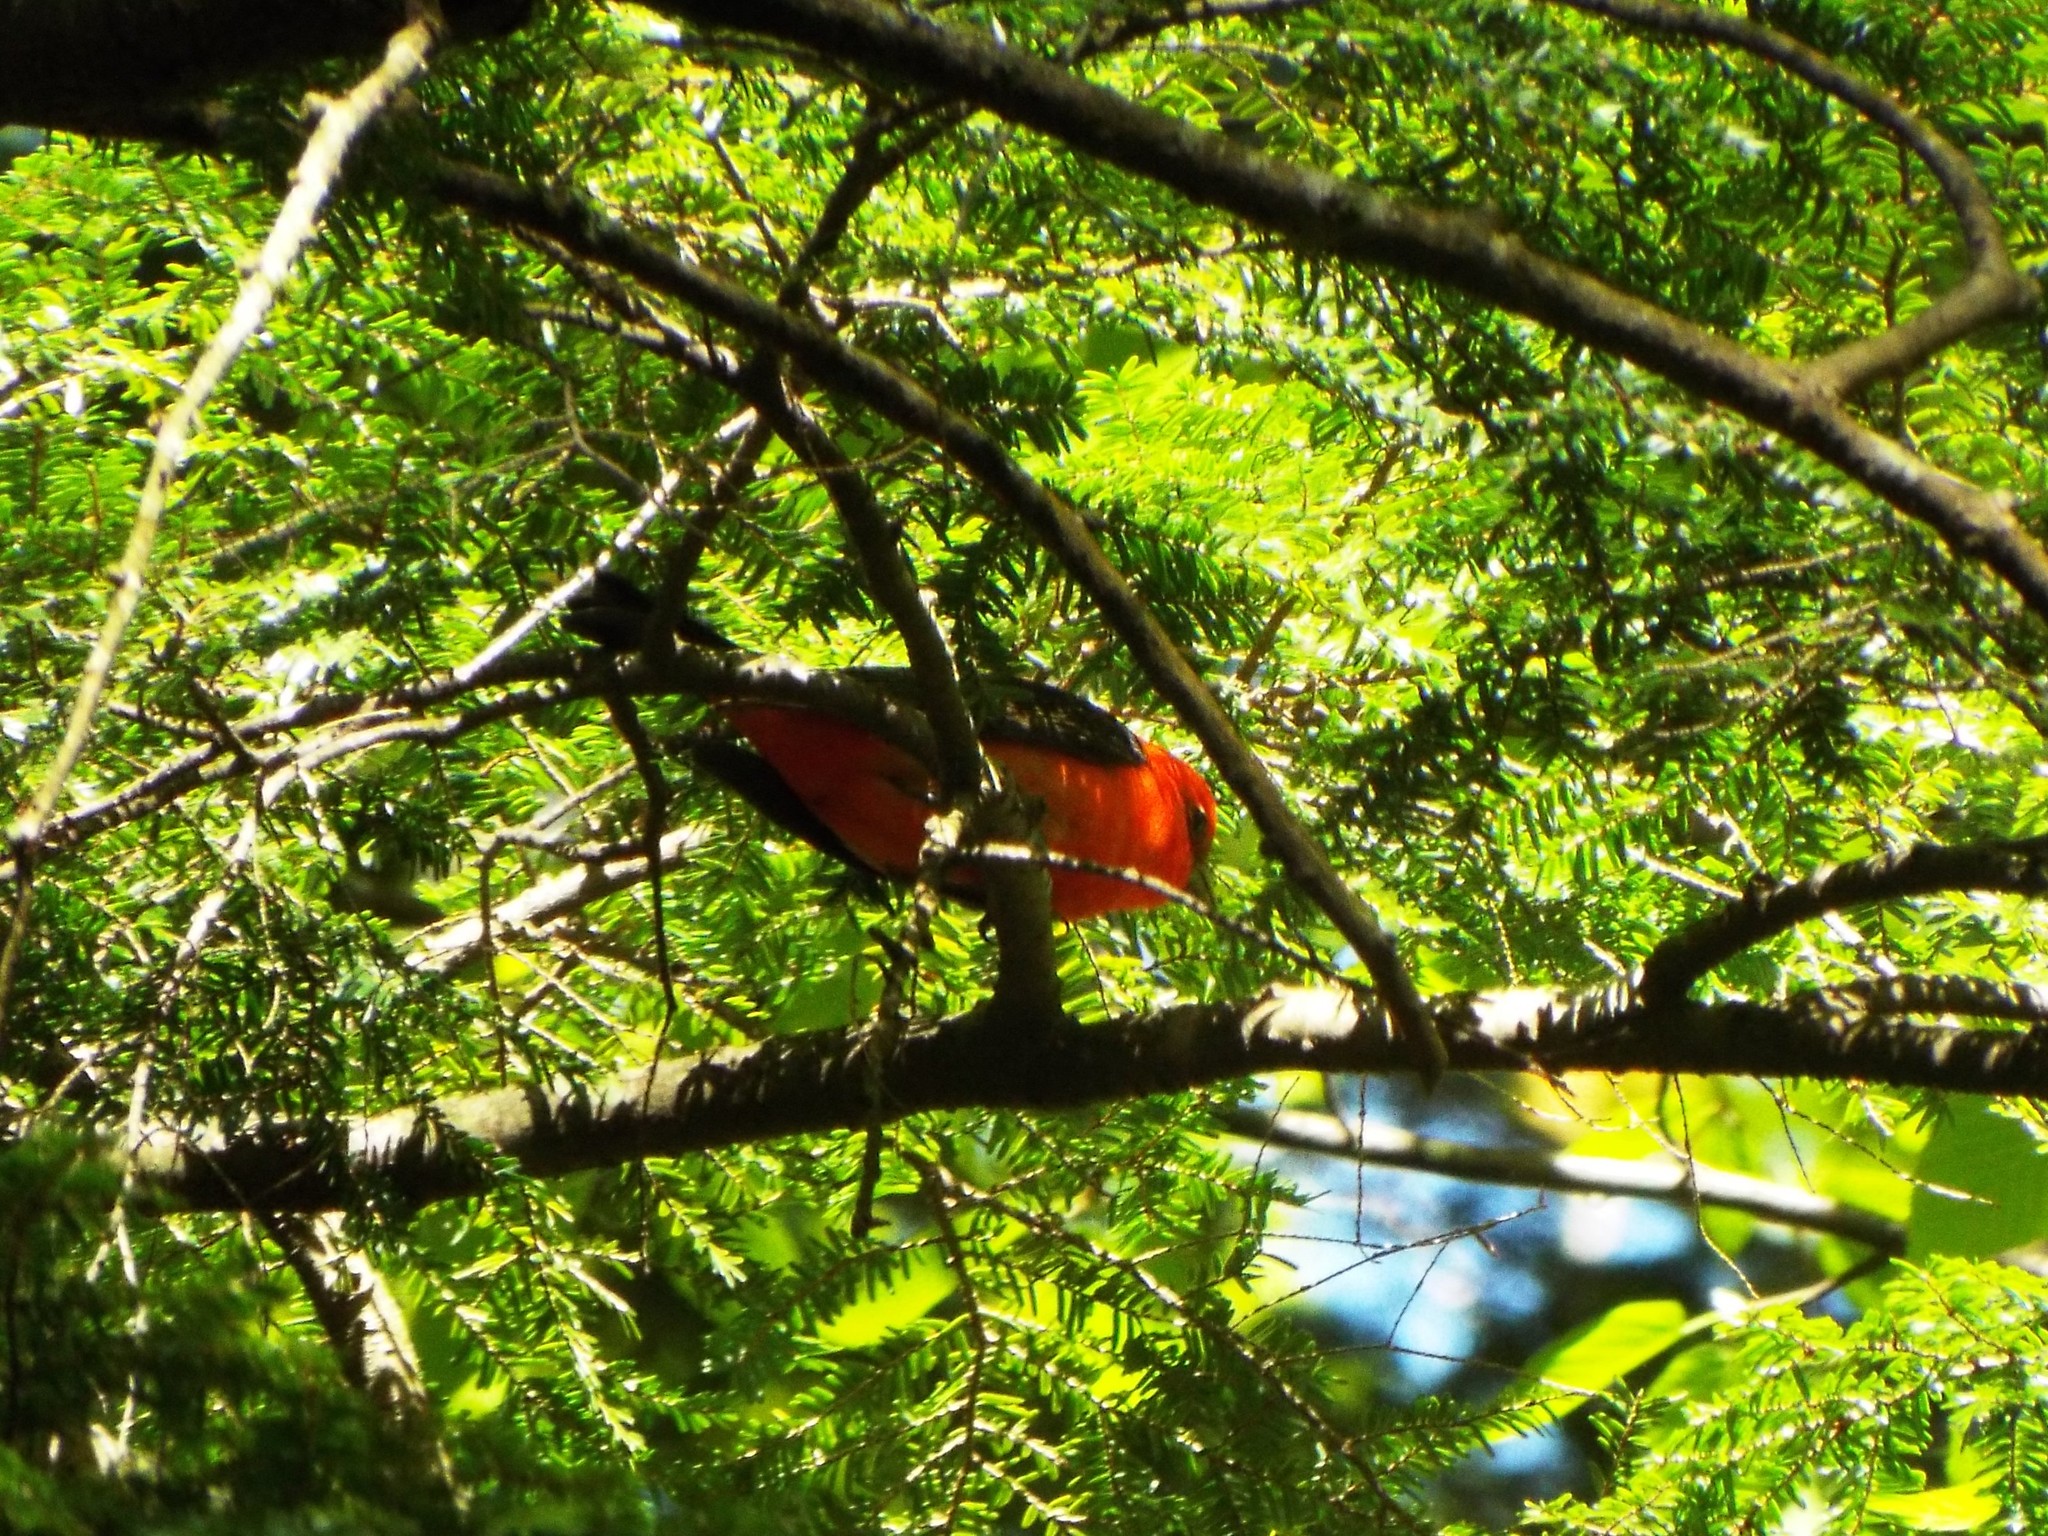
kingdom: Animalia
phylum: Chordata
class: Aves
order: Passeriformes
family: Cardinalidae
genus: Piranga
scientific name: Piranga olivacea
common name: Scarlet tanager
